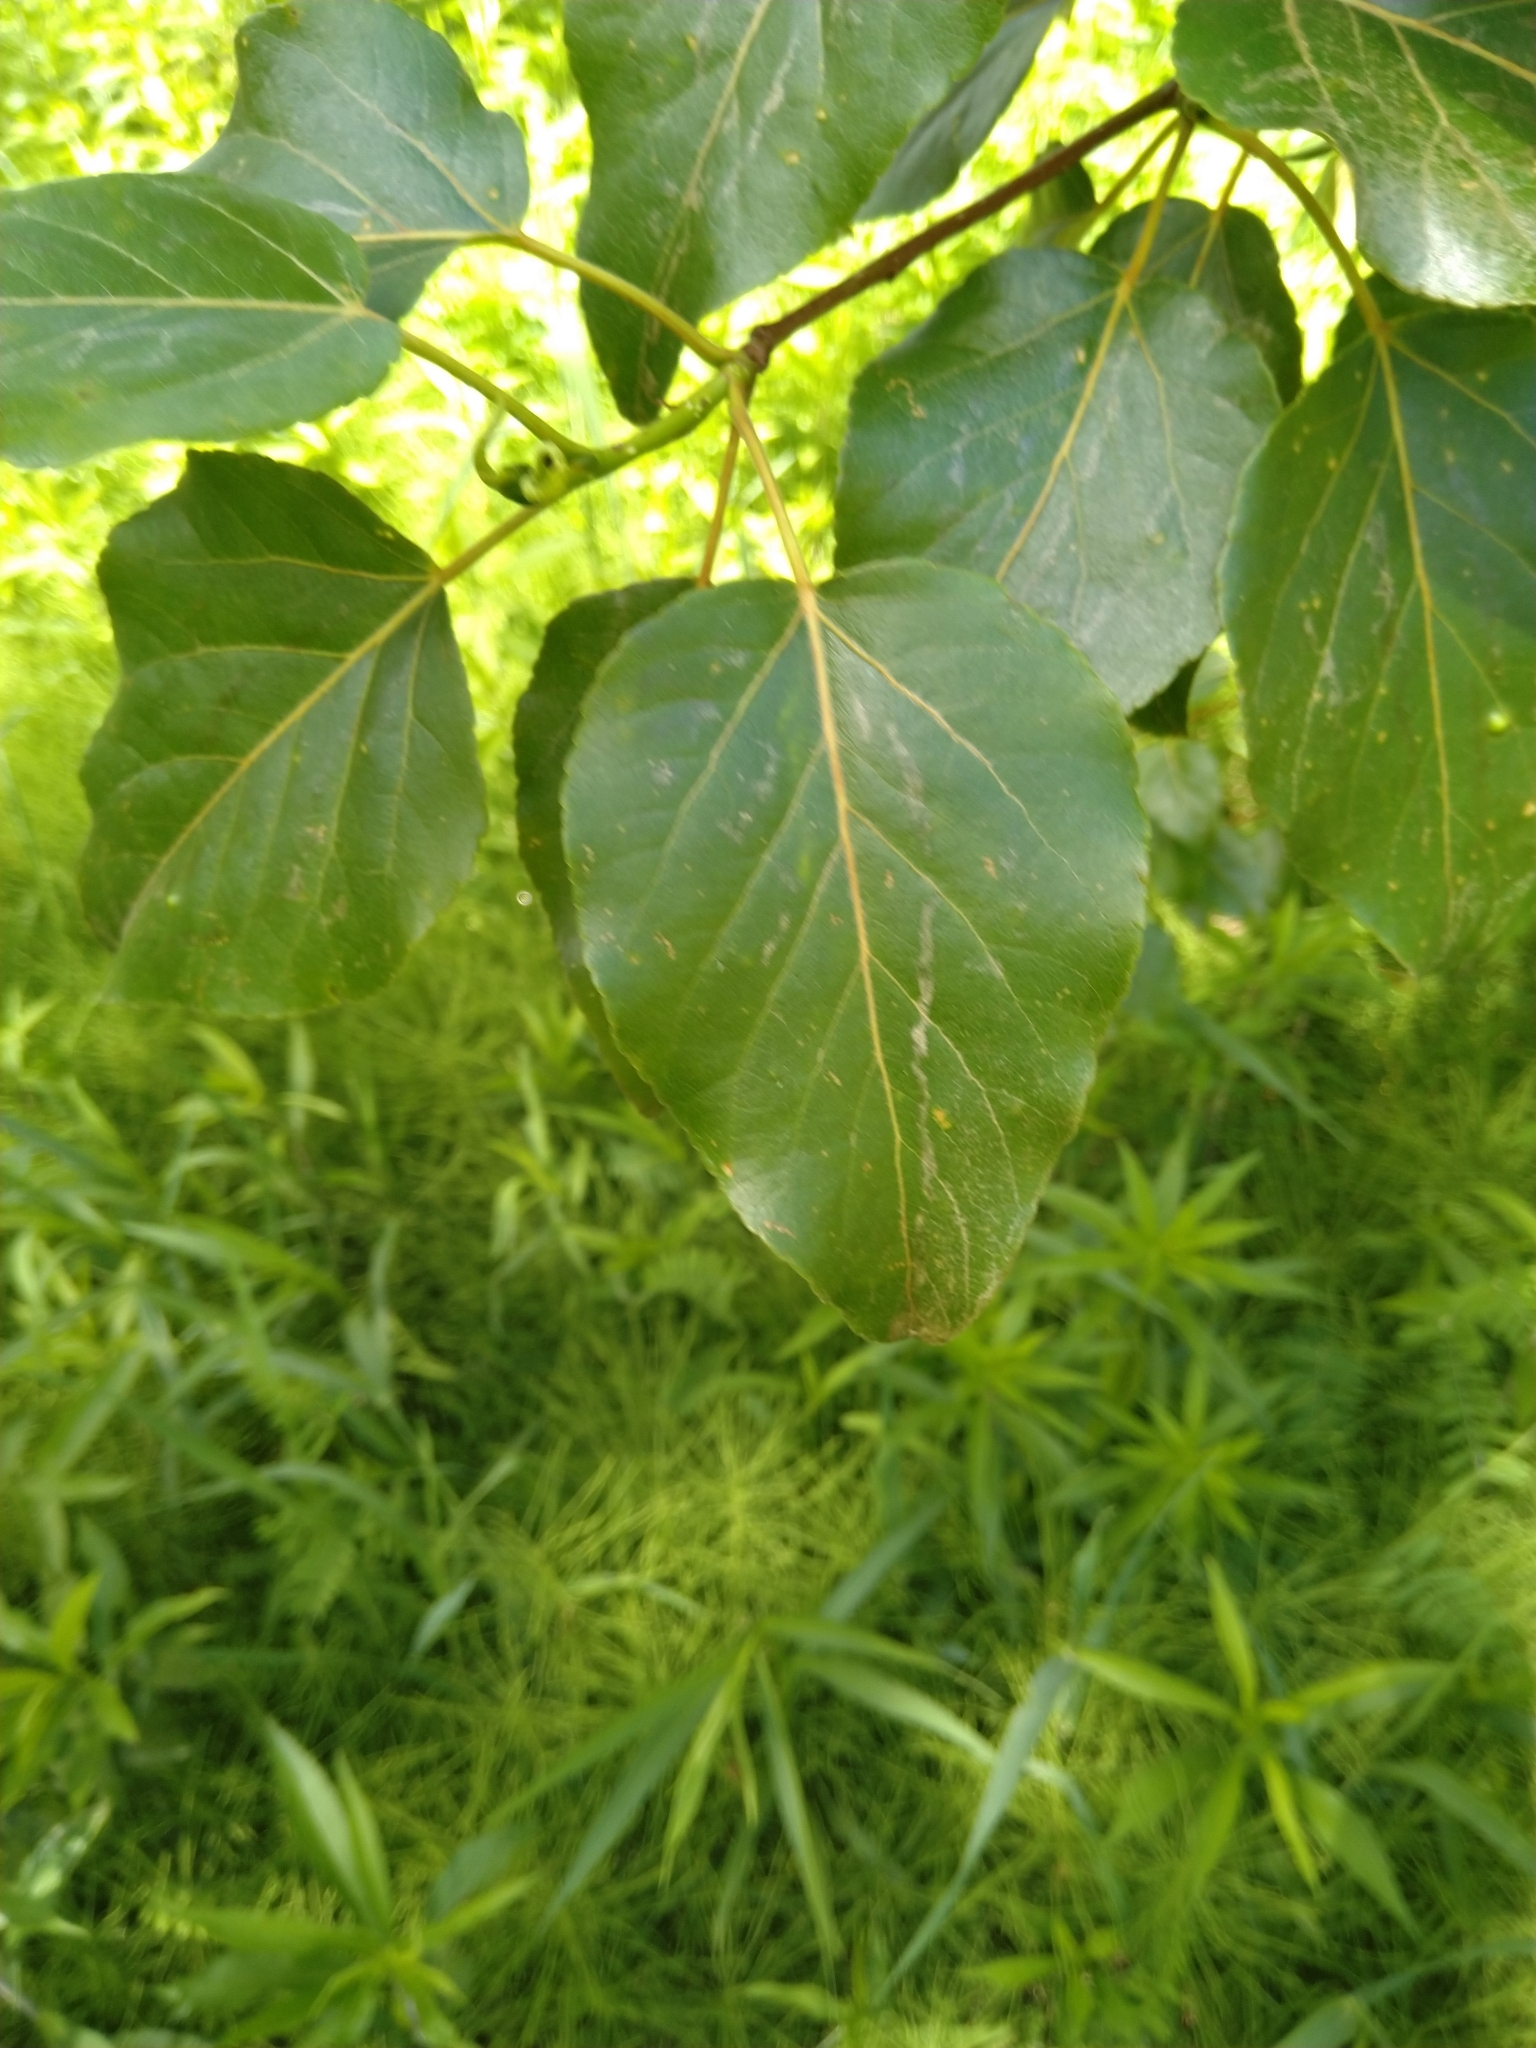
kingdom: Plantae
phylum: Tracheophyta
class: Magnoliopsida
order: Malpighiales
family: Salicaceae
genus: Populus
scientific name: Populus balsamifera
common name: Balsam poplar
